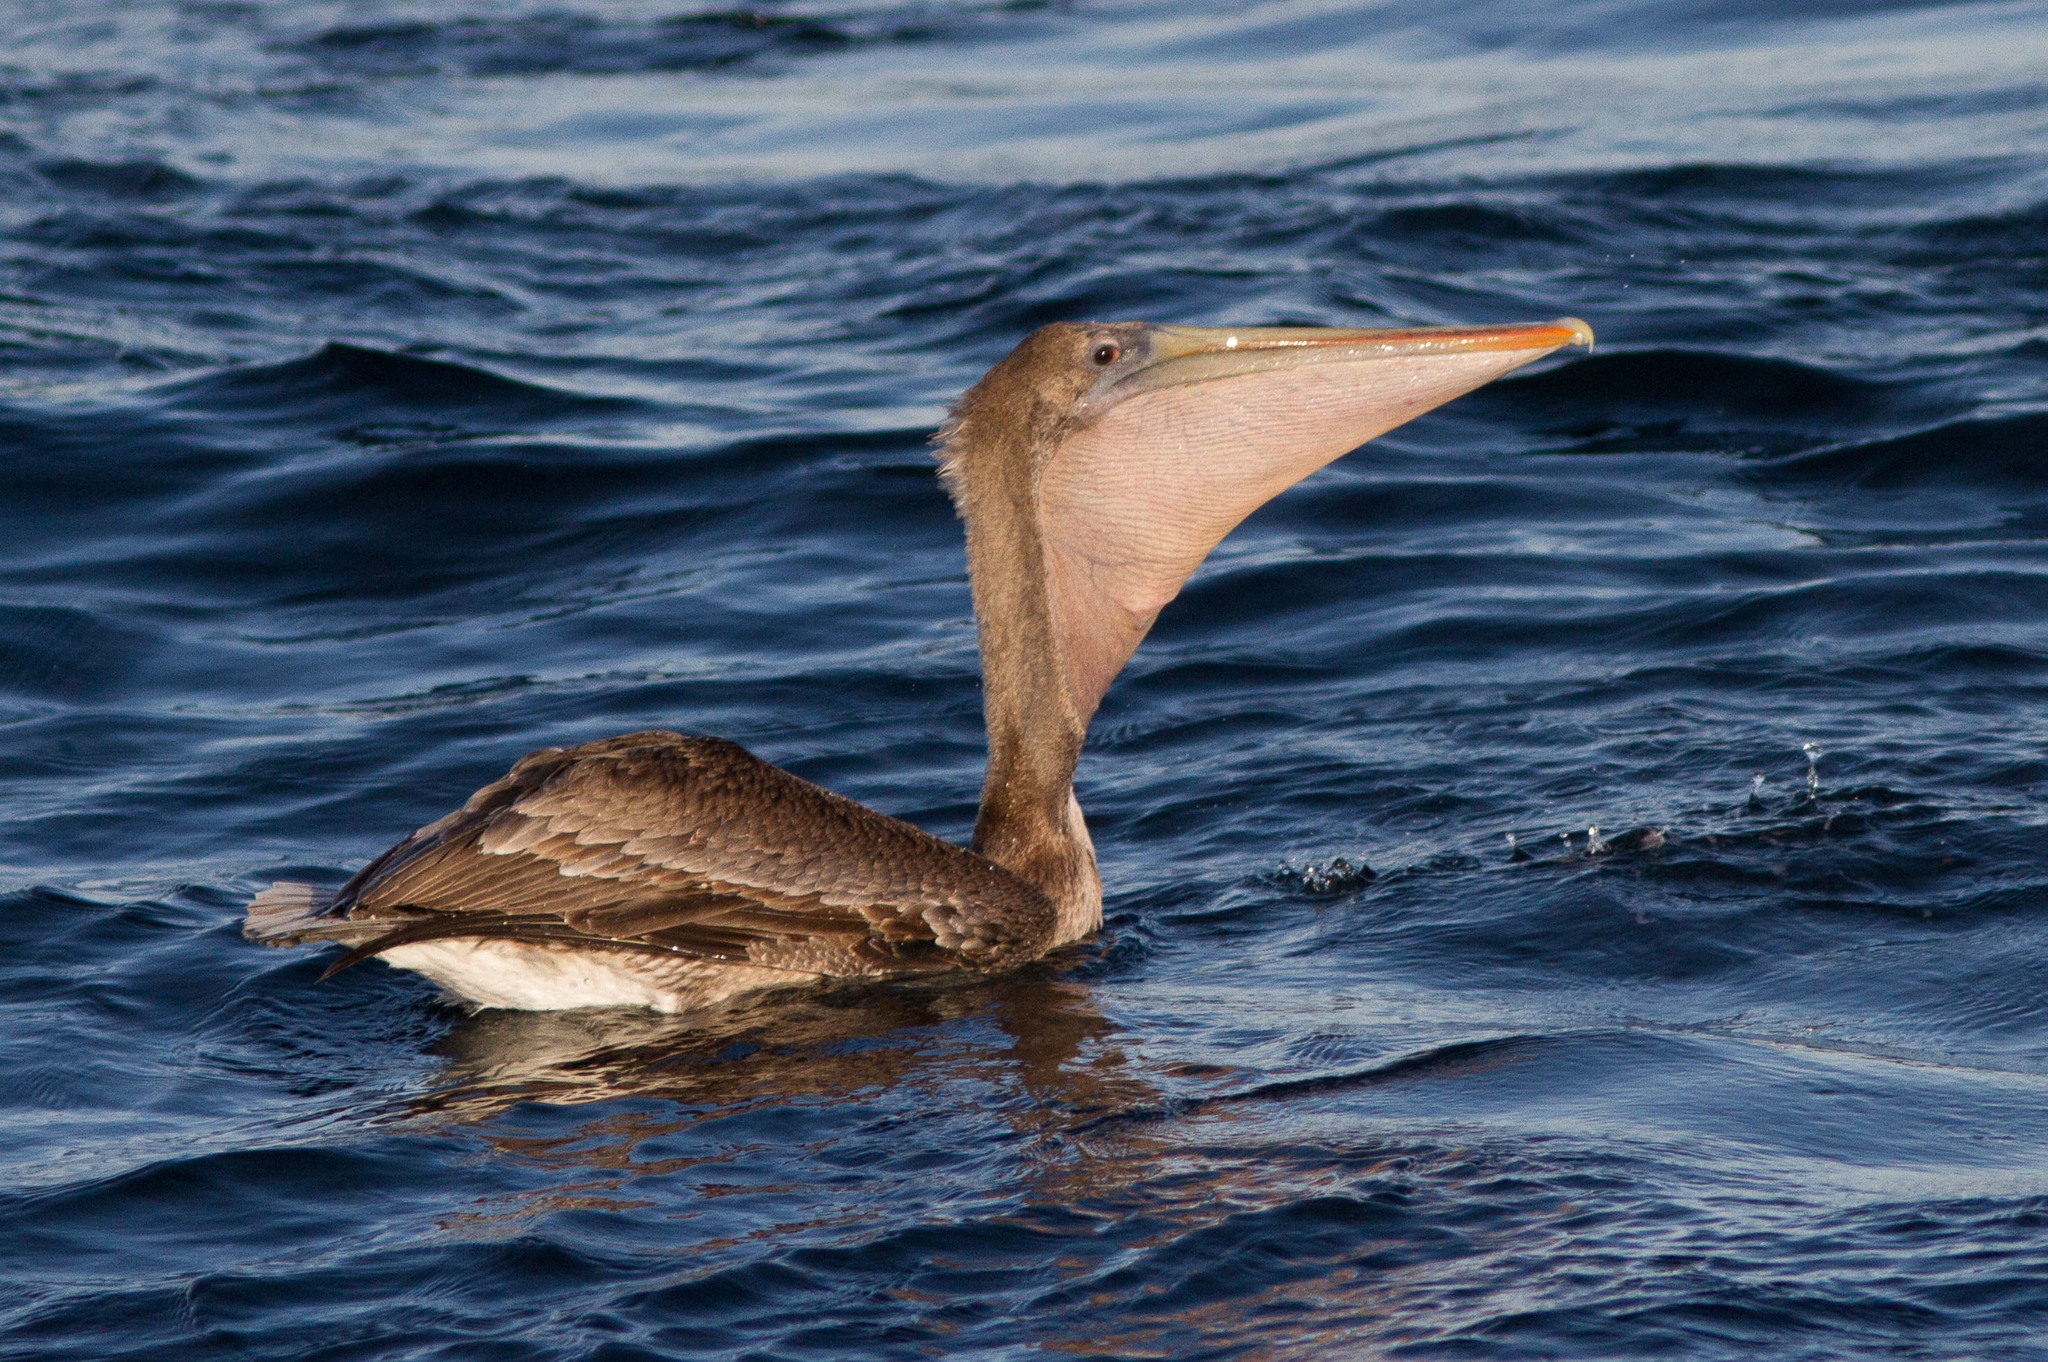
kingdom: Animalia
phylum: Chordata
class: Aves
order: Pelecaniformes
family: Pelecanidae
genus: Pelecanus
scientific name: Pelecanus occidentalis
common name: Brown pelican
